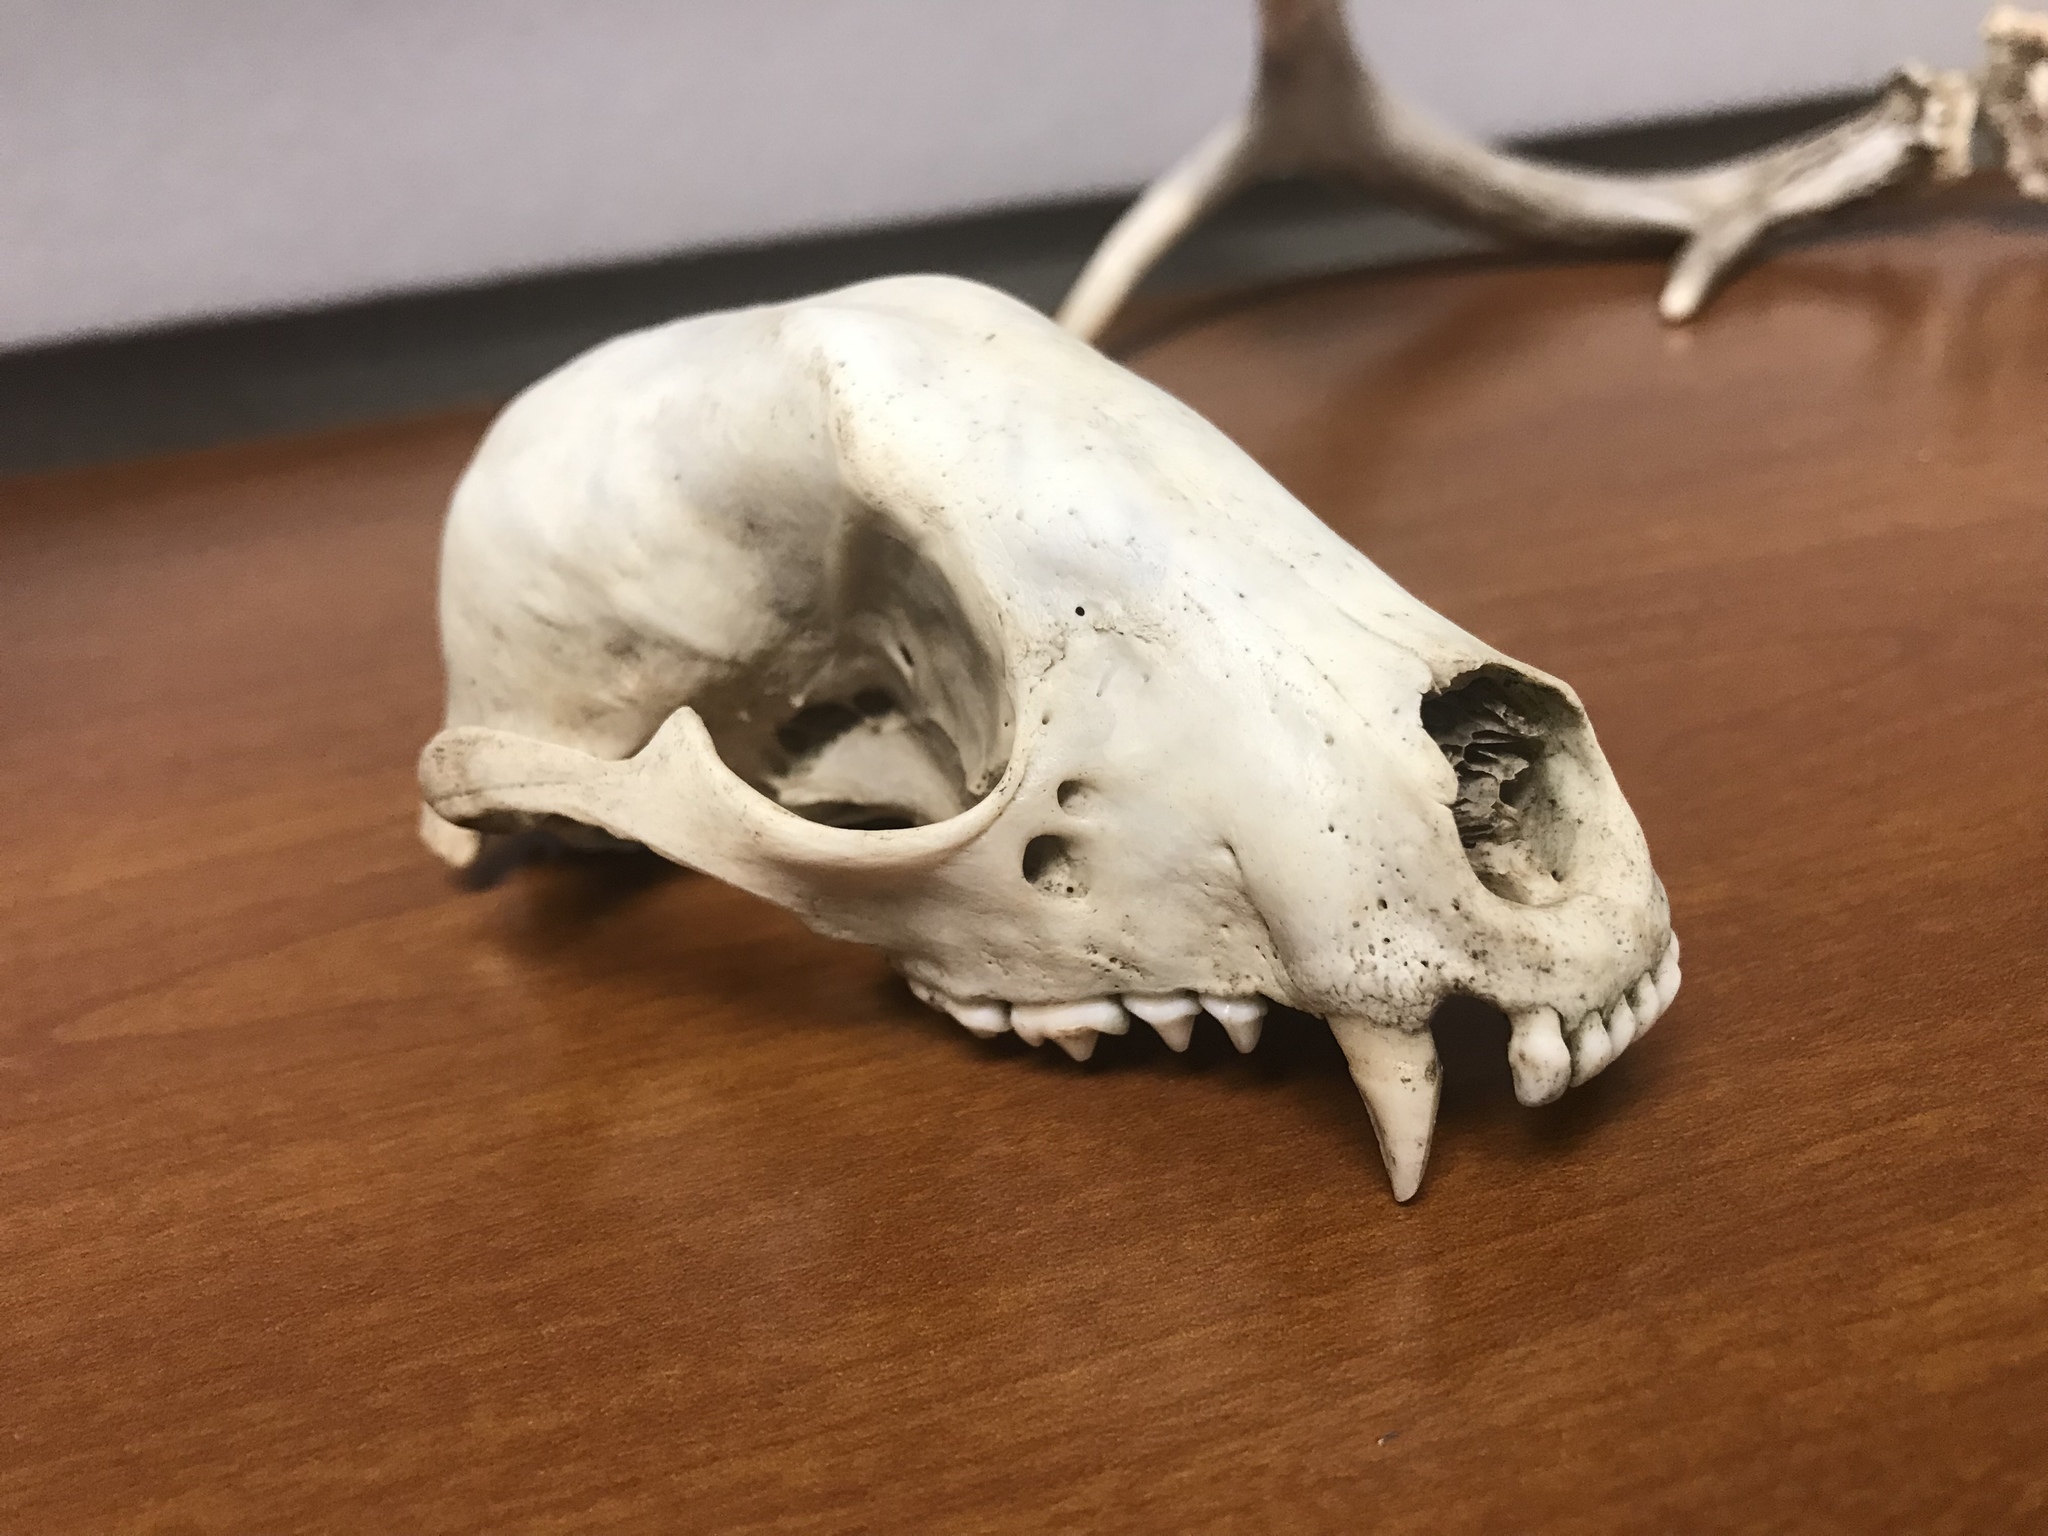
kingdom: Animalia
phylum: Chordata
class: Mammalia
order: Carnivora
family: Procyonidae
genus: Procyon
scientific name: Procyon lotor
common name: Raccoon
